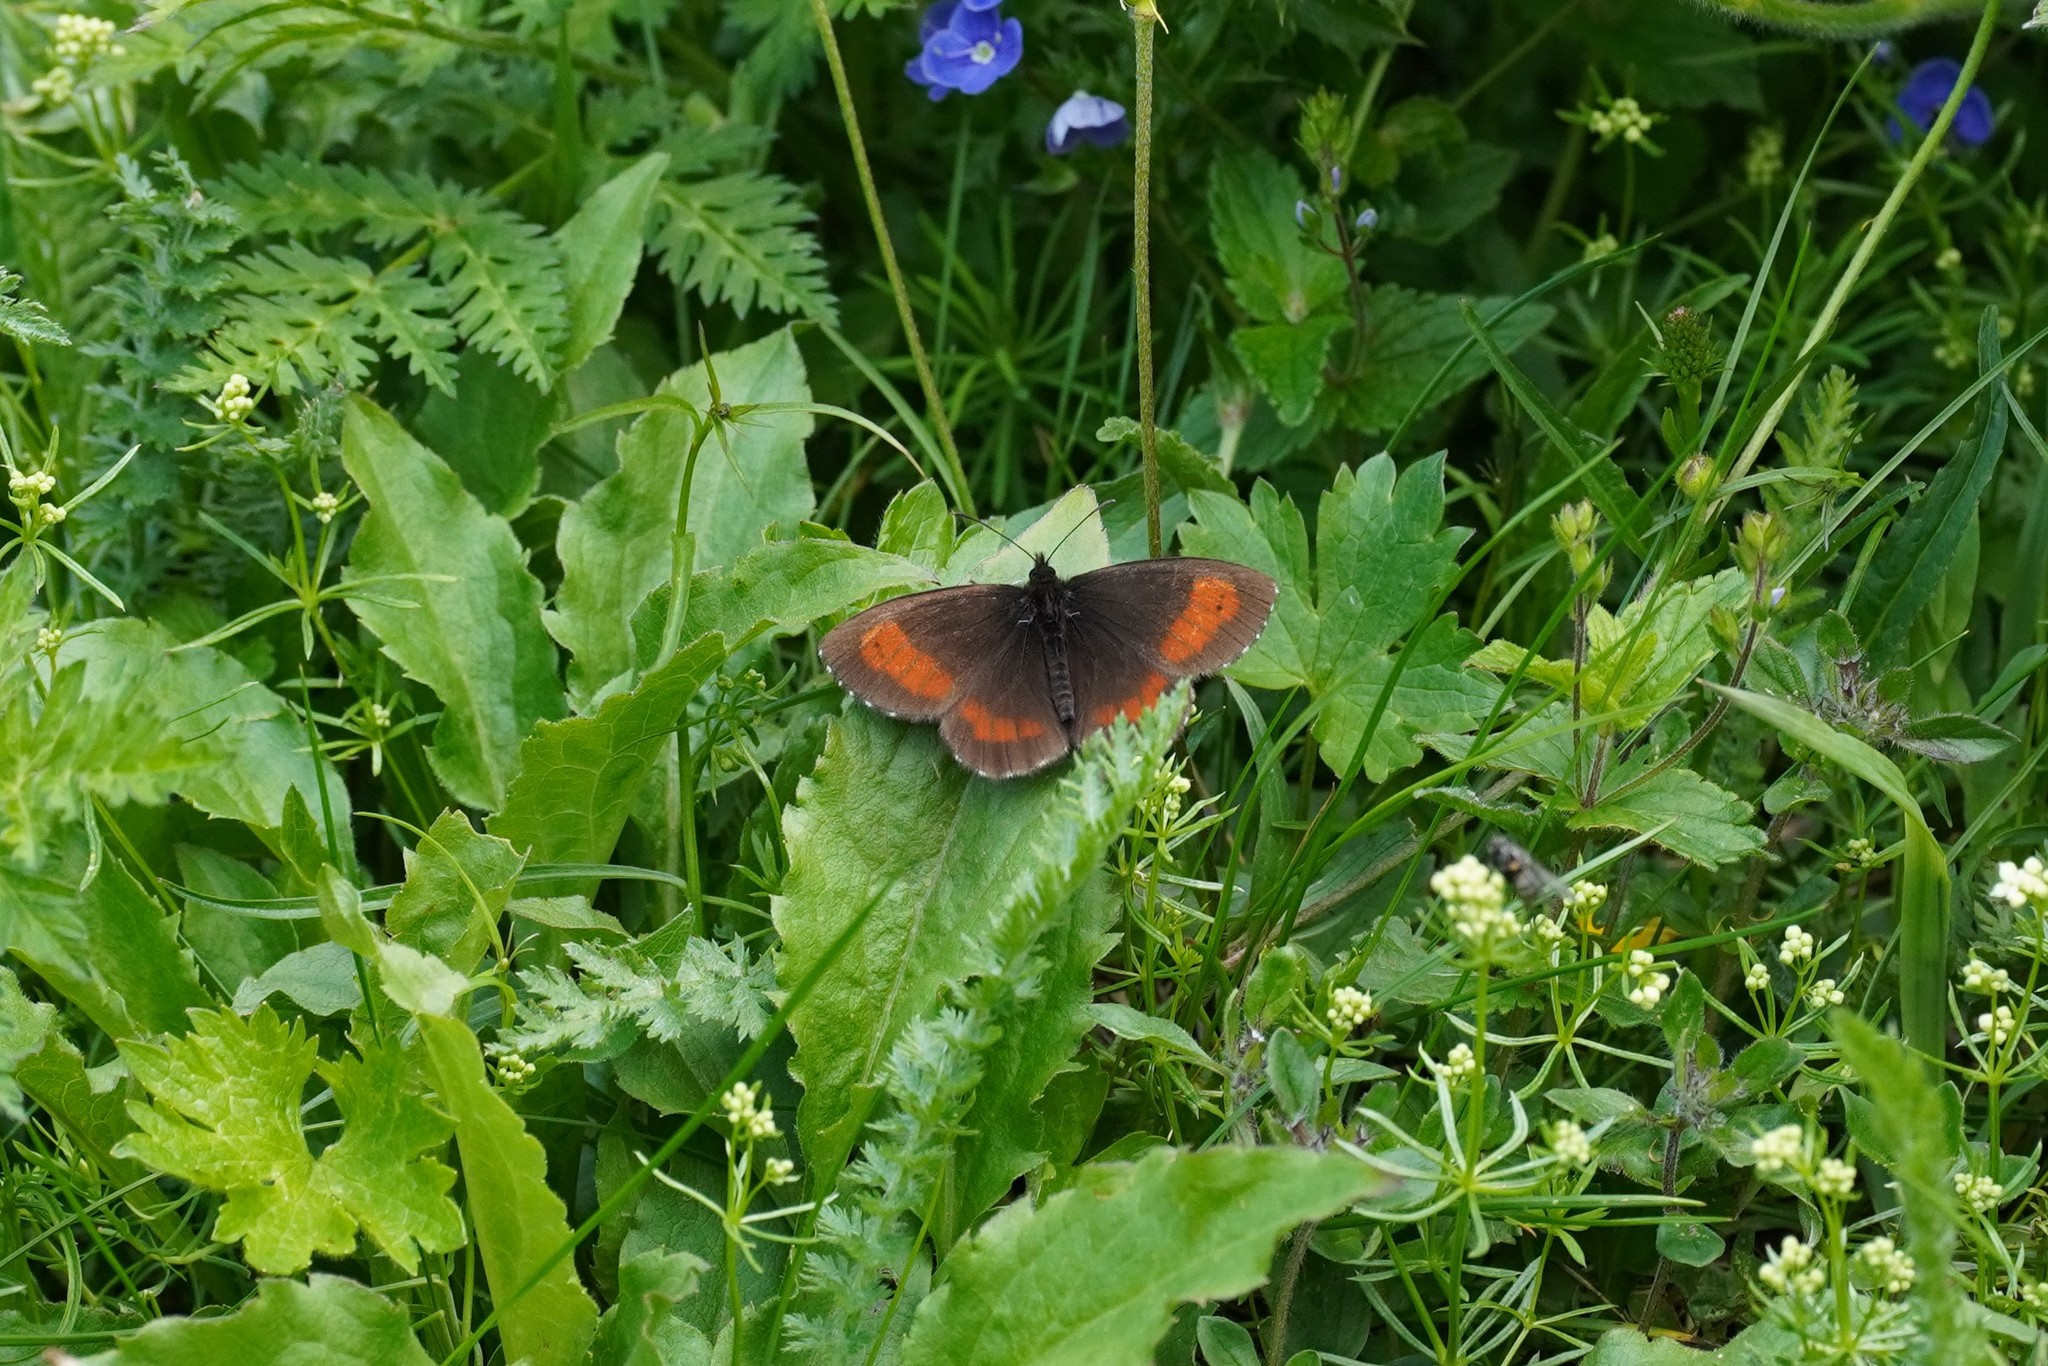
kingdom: Animalia
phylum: Arthropoda
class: Insecta
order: Lepidoptera
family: Nymphalidae
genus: Erebia
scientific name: Erebia euryale
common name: Large ringlet
